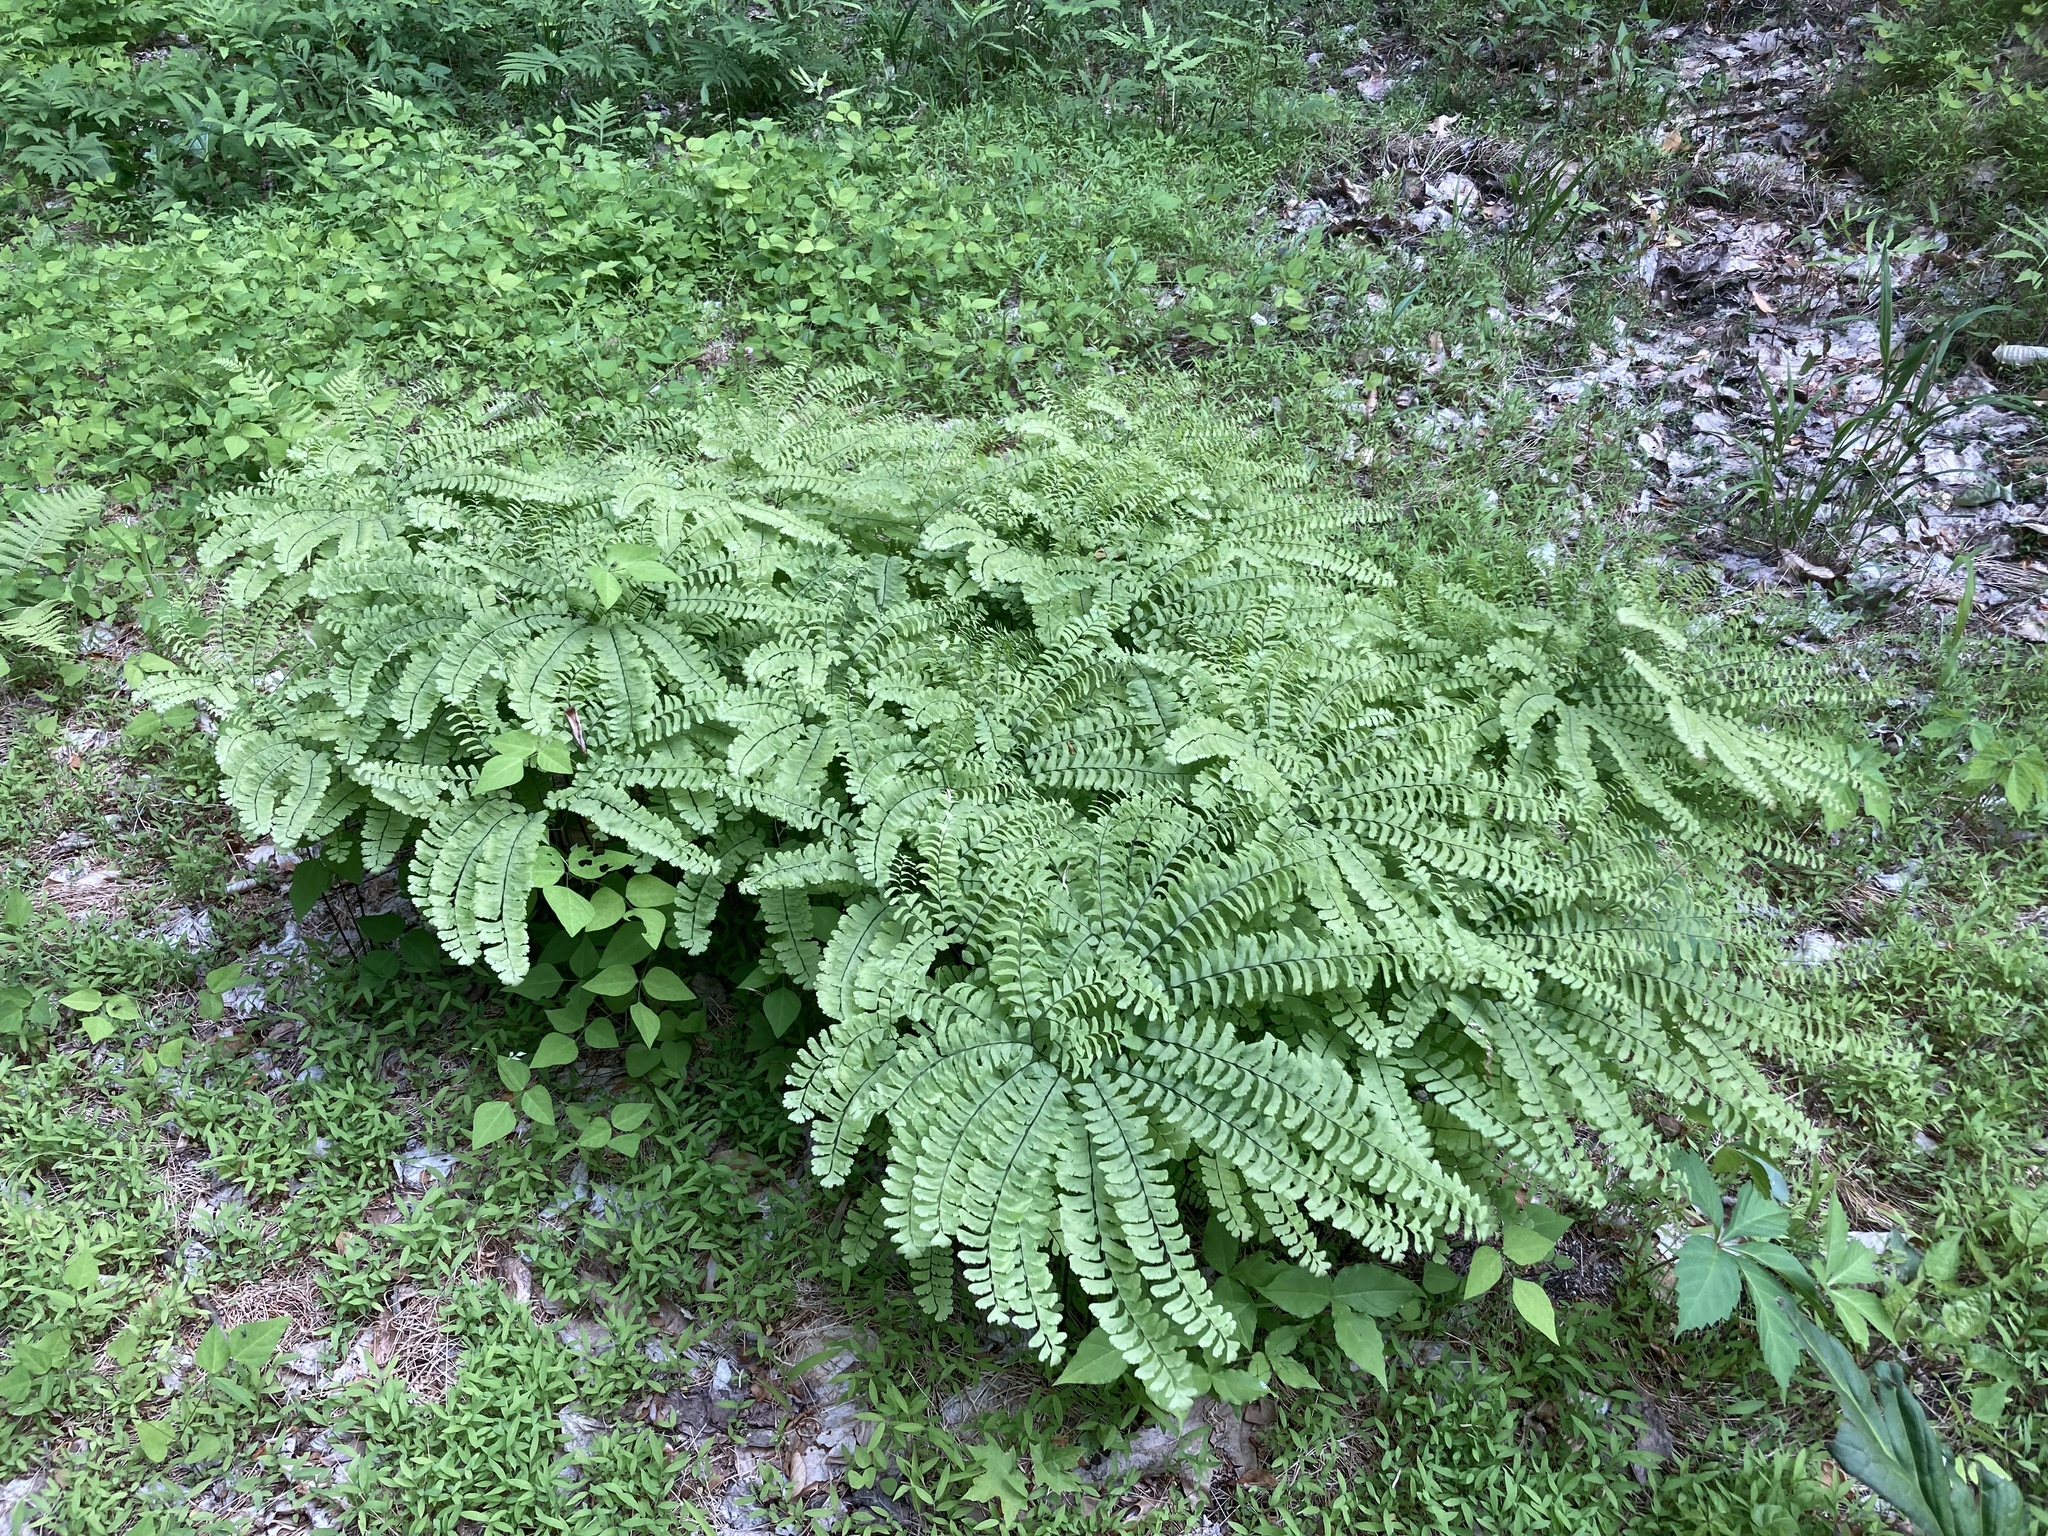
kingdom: Plantae
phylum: Tracheophyta
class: Polypodiopsida
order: Polypodiales
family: Pteridaceae
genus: Adiantum
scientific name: Adiantum pedatum
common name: Five-finger fern
